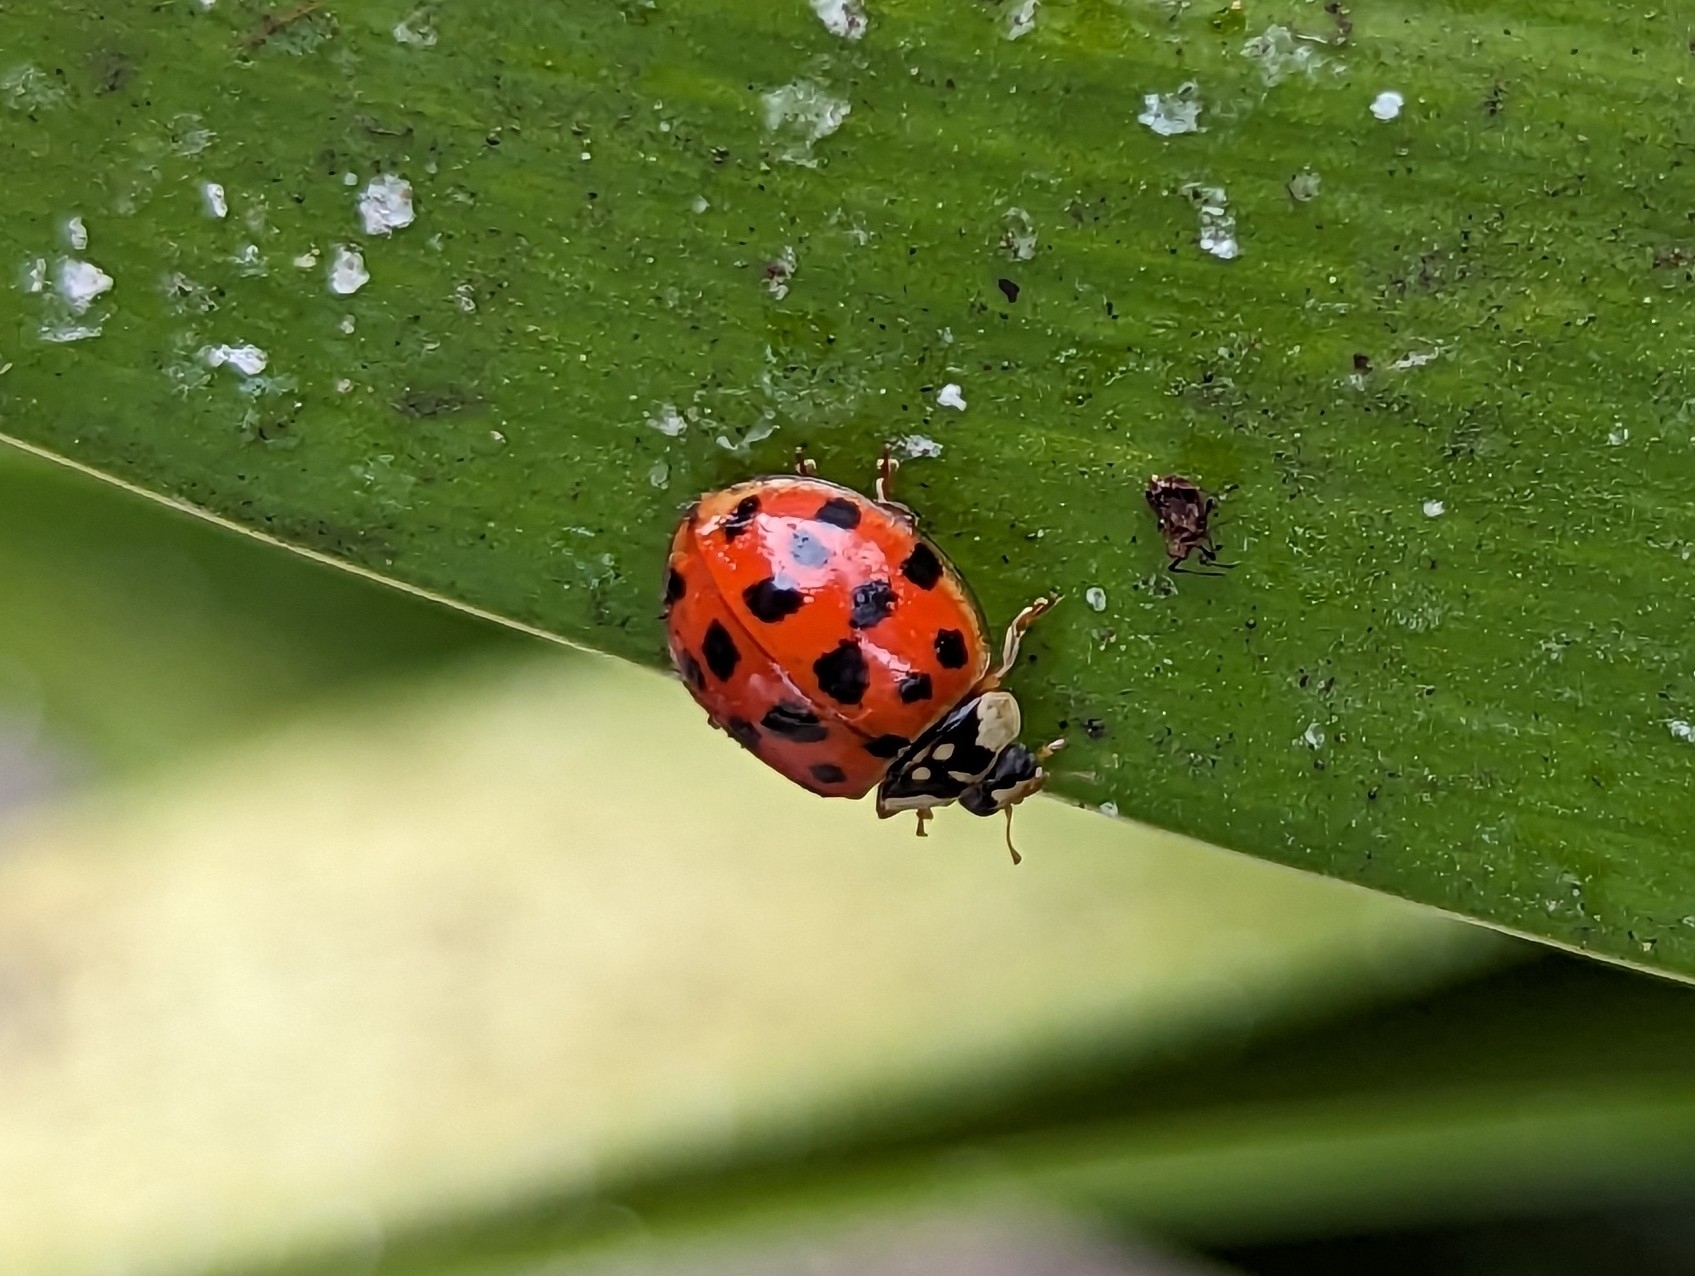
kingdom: Animalia
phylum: Arthropoda
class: Insecta
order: Coleoptera
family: Coccinellidae
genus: Harmonia
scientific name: Harmonia axyridis
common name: Harlequin ladybird
